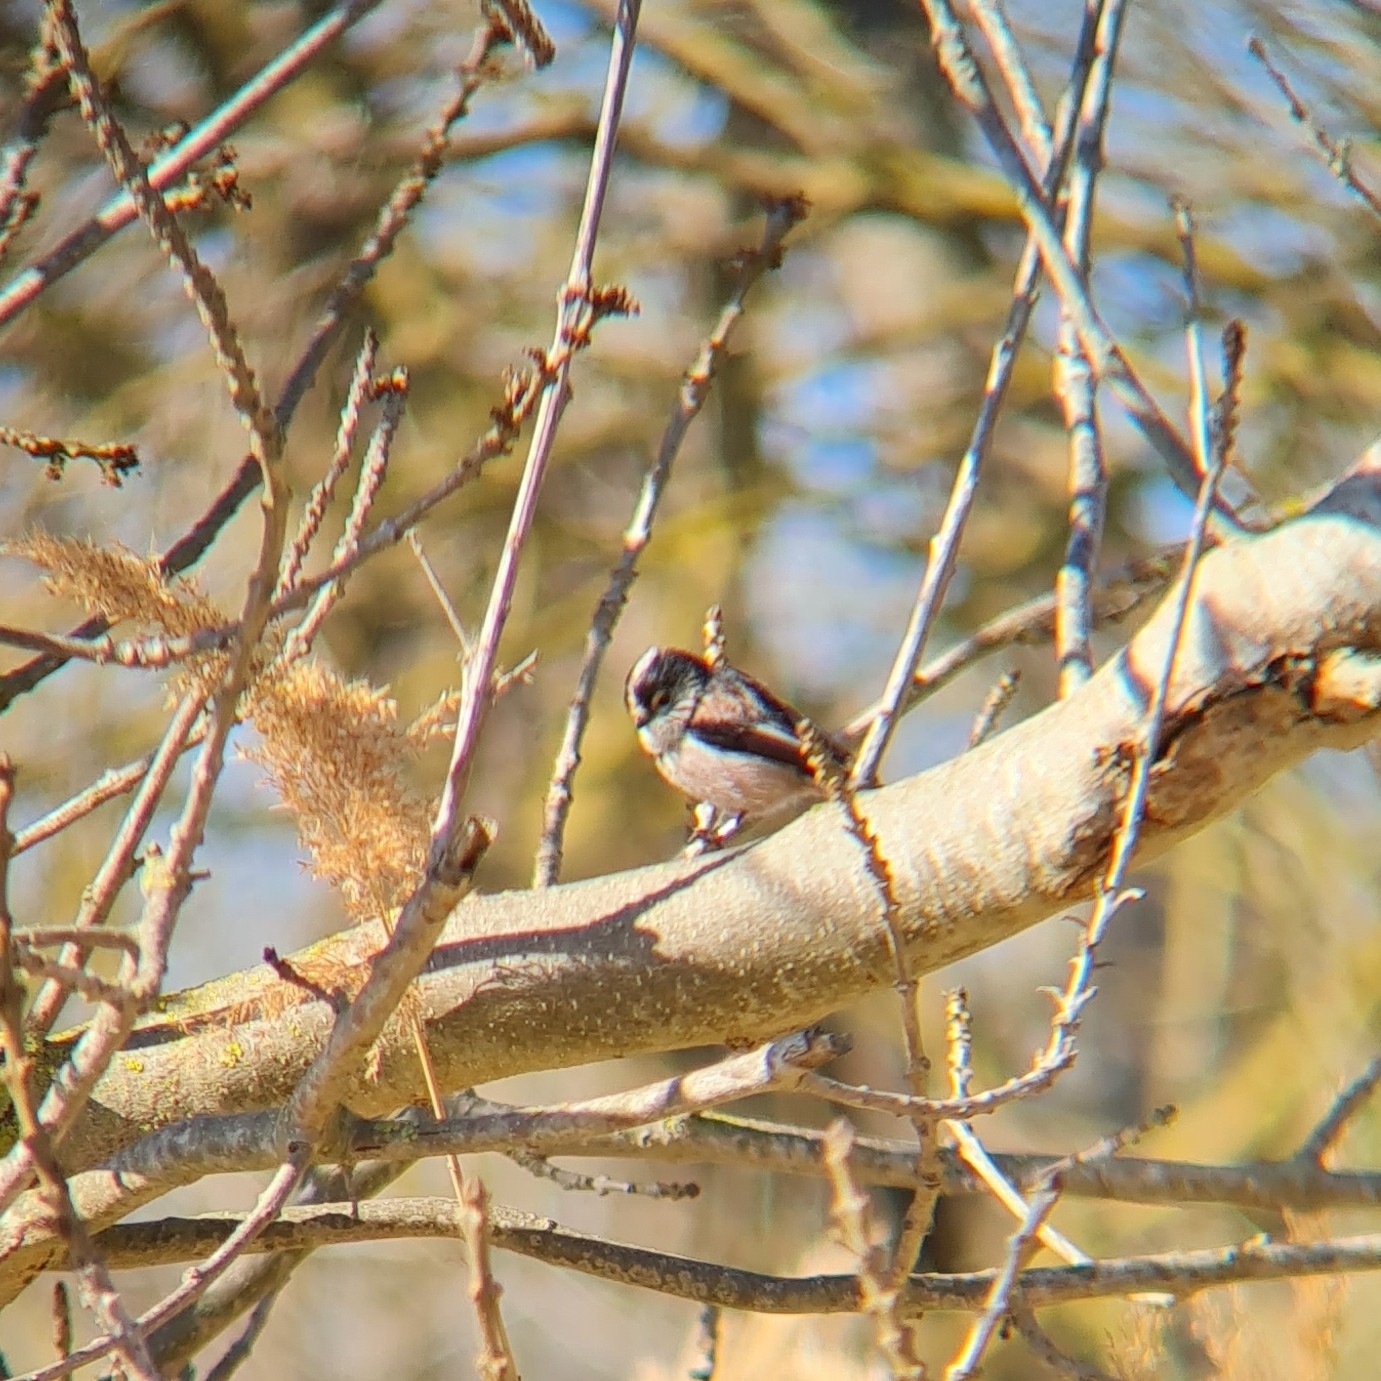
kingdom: Animalia
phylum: Chordata
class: Aves
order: Passeriformes
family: Aegithalidae
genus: Aegithalos
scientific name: Aegithalos caudatus
